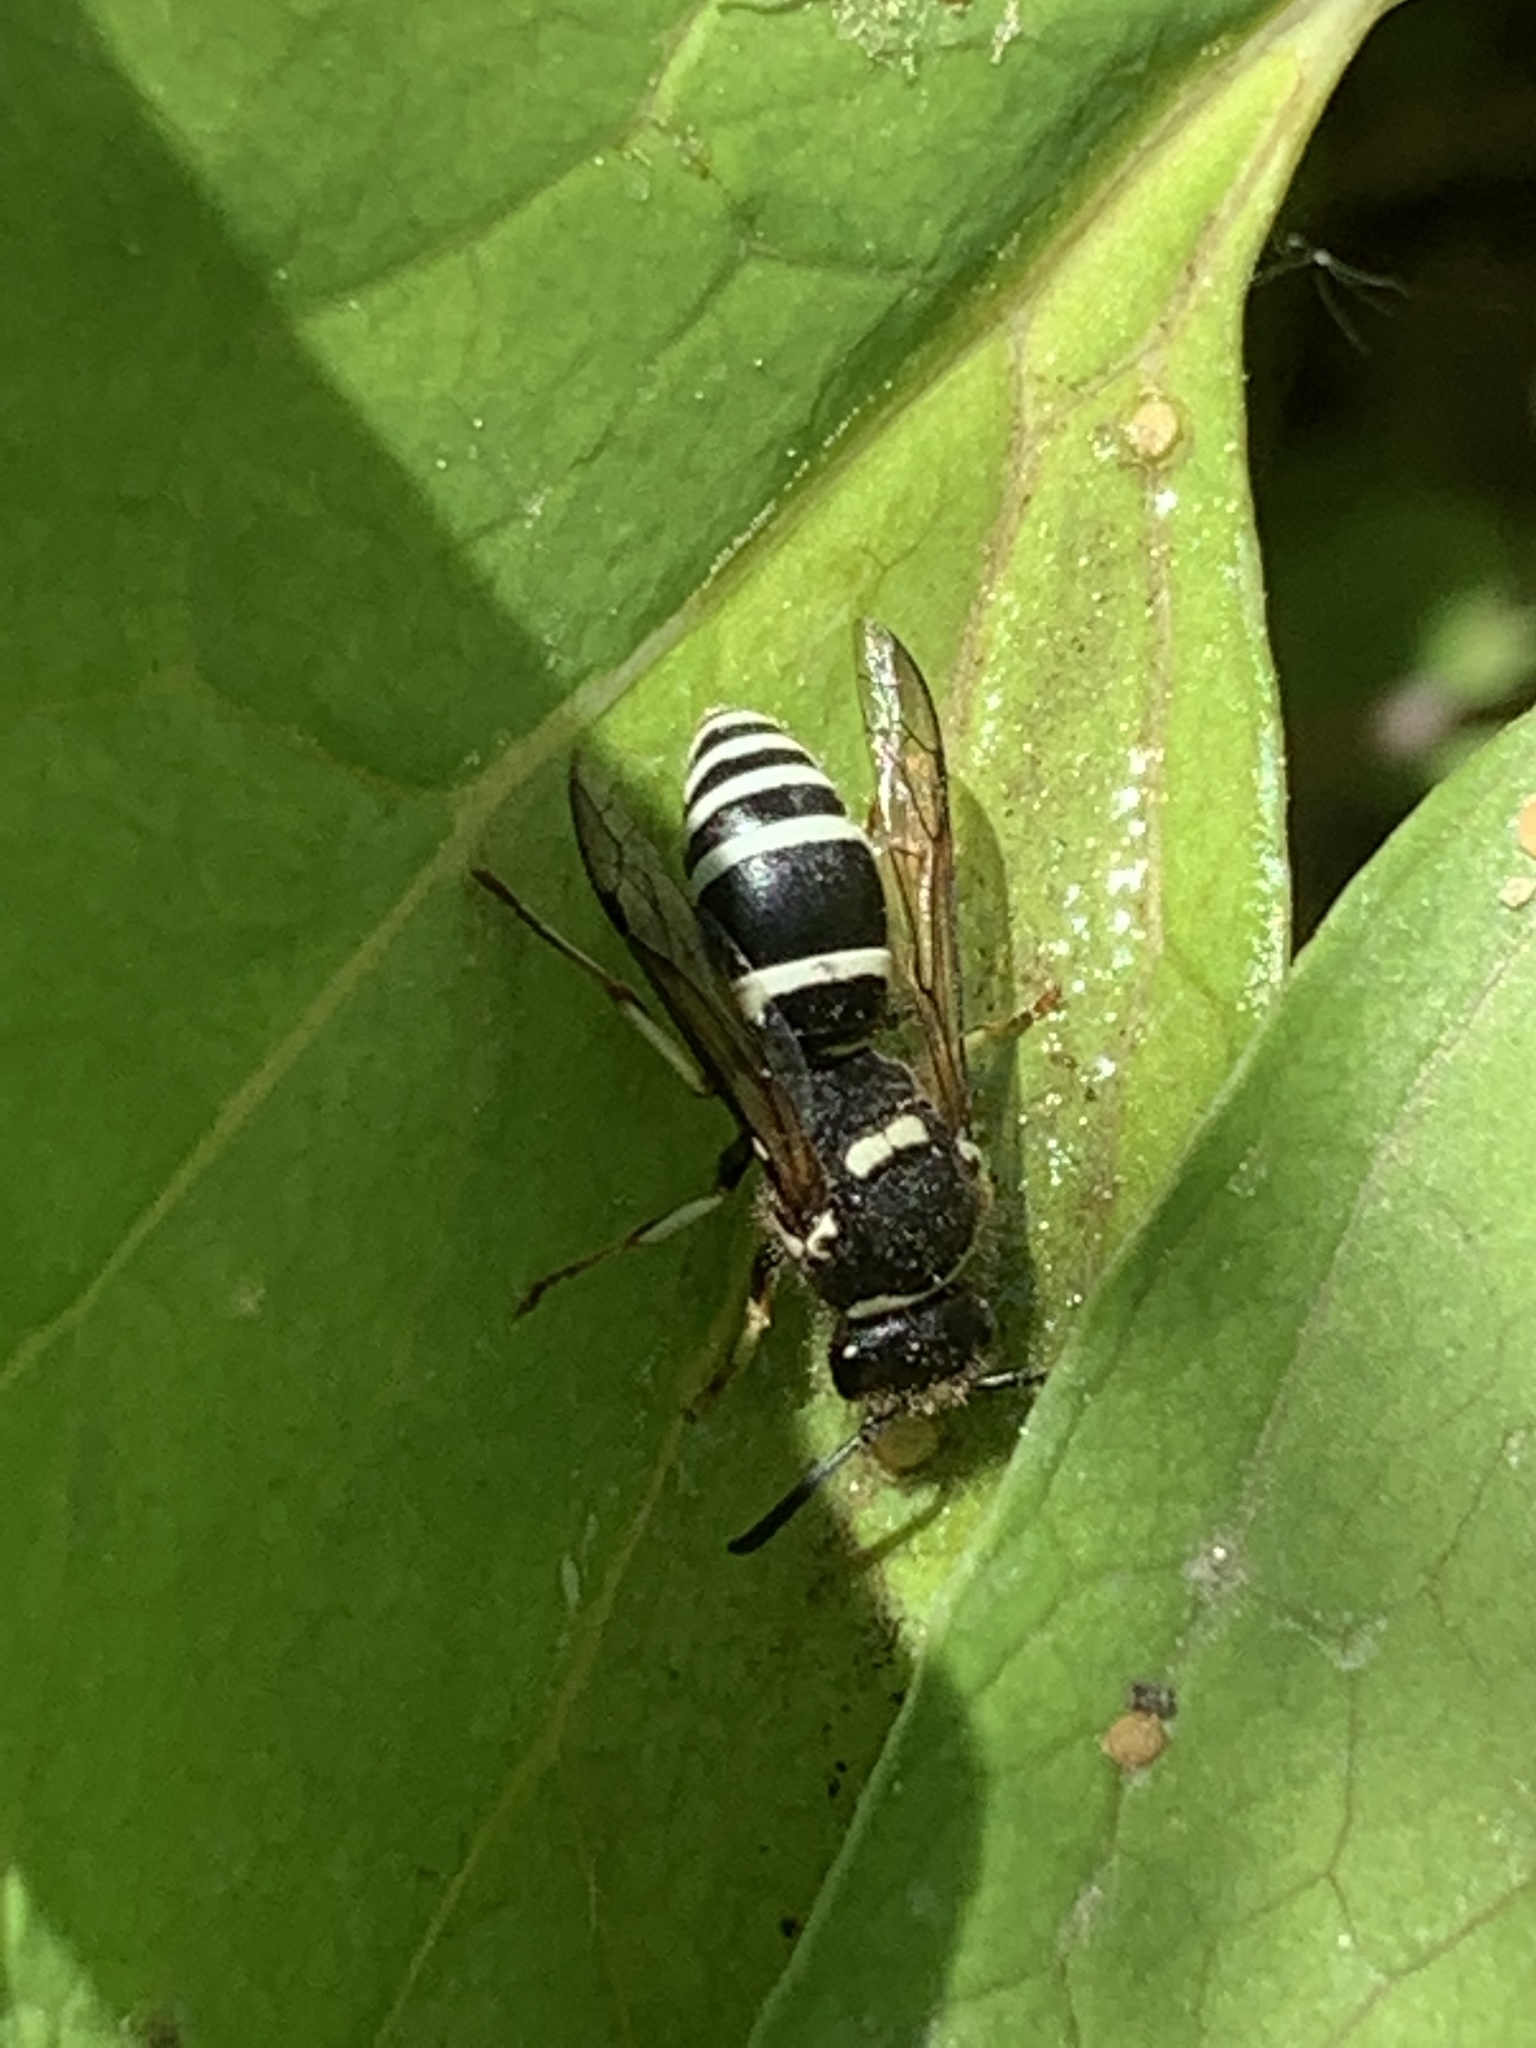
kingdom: Animalia
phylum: Arthropoda
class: Insecta
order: Hymenoptera
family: Vespidae
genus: Ancistrocerus
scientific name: Ancistrocerus waldenii
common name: Walden’s potter wasp
